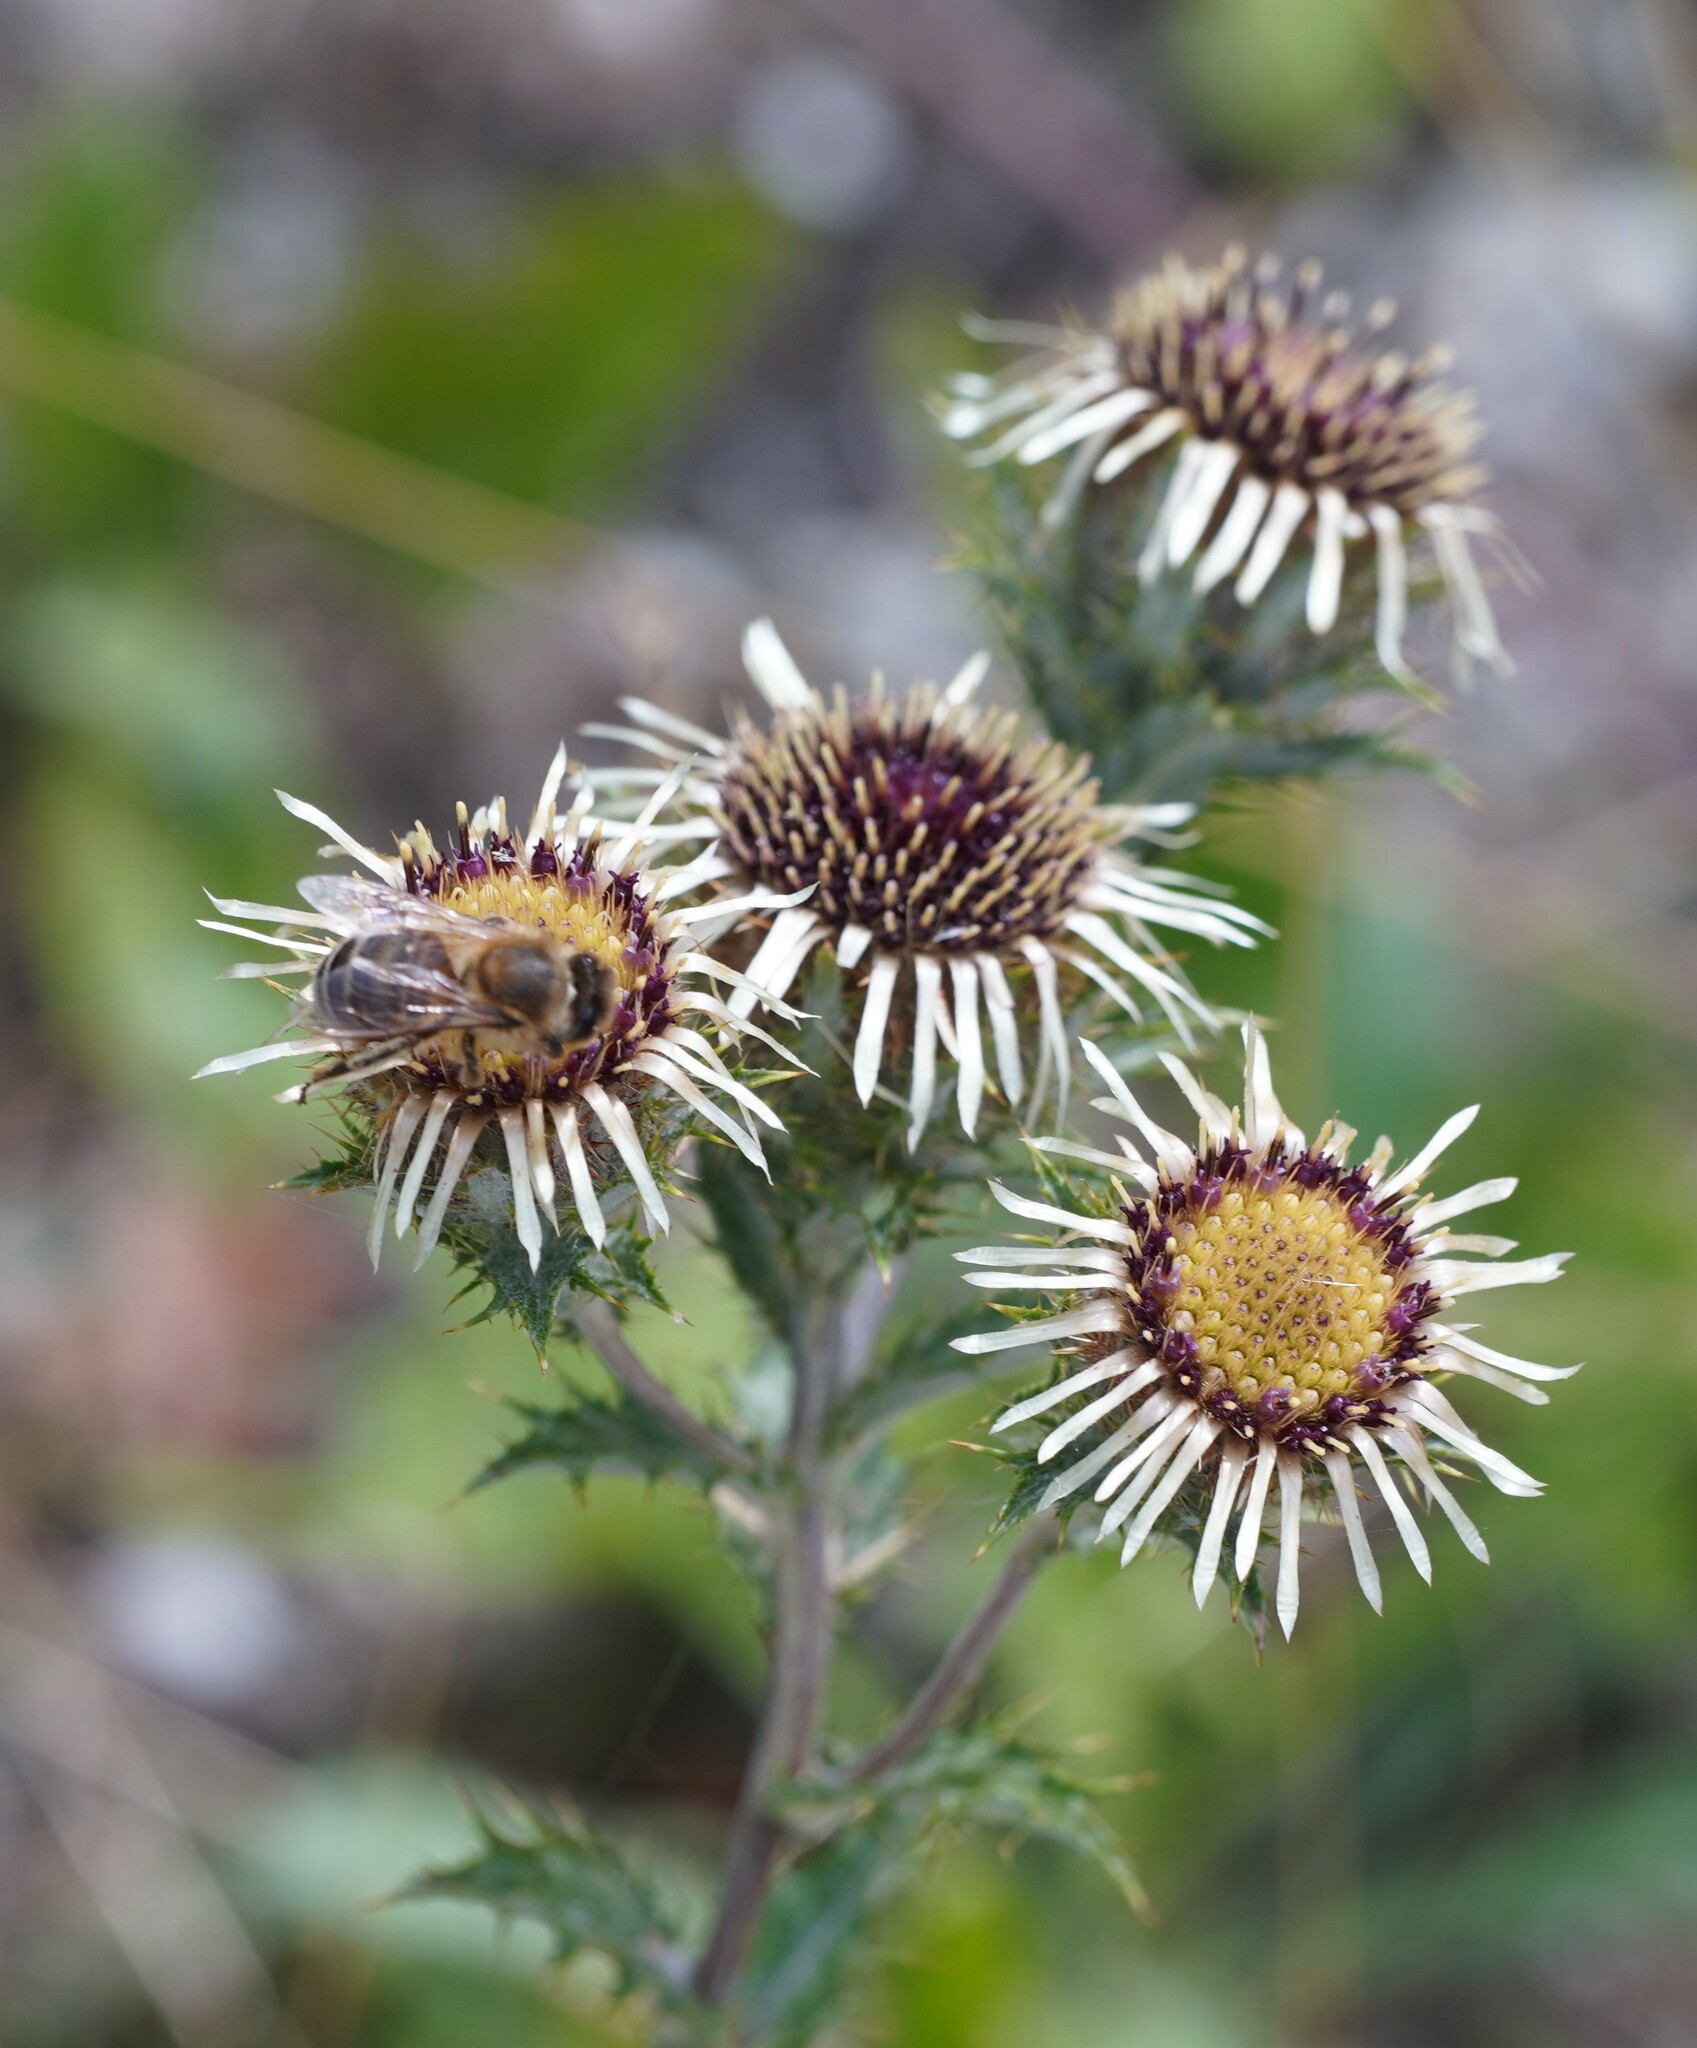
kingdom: Plantae
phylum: Tracheophyta
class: Magnoliopsida
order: Asterales
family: Asteraceae
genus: Carlina
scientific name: Carlina vulgaris
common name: Carline thistle
